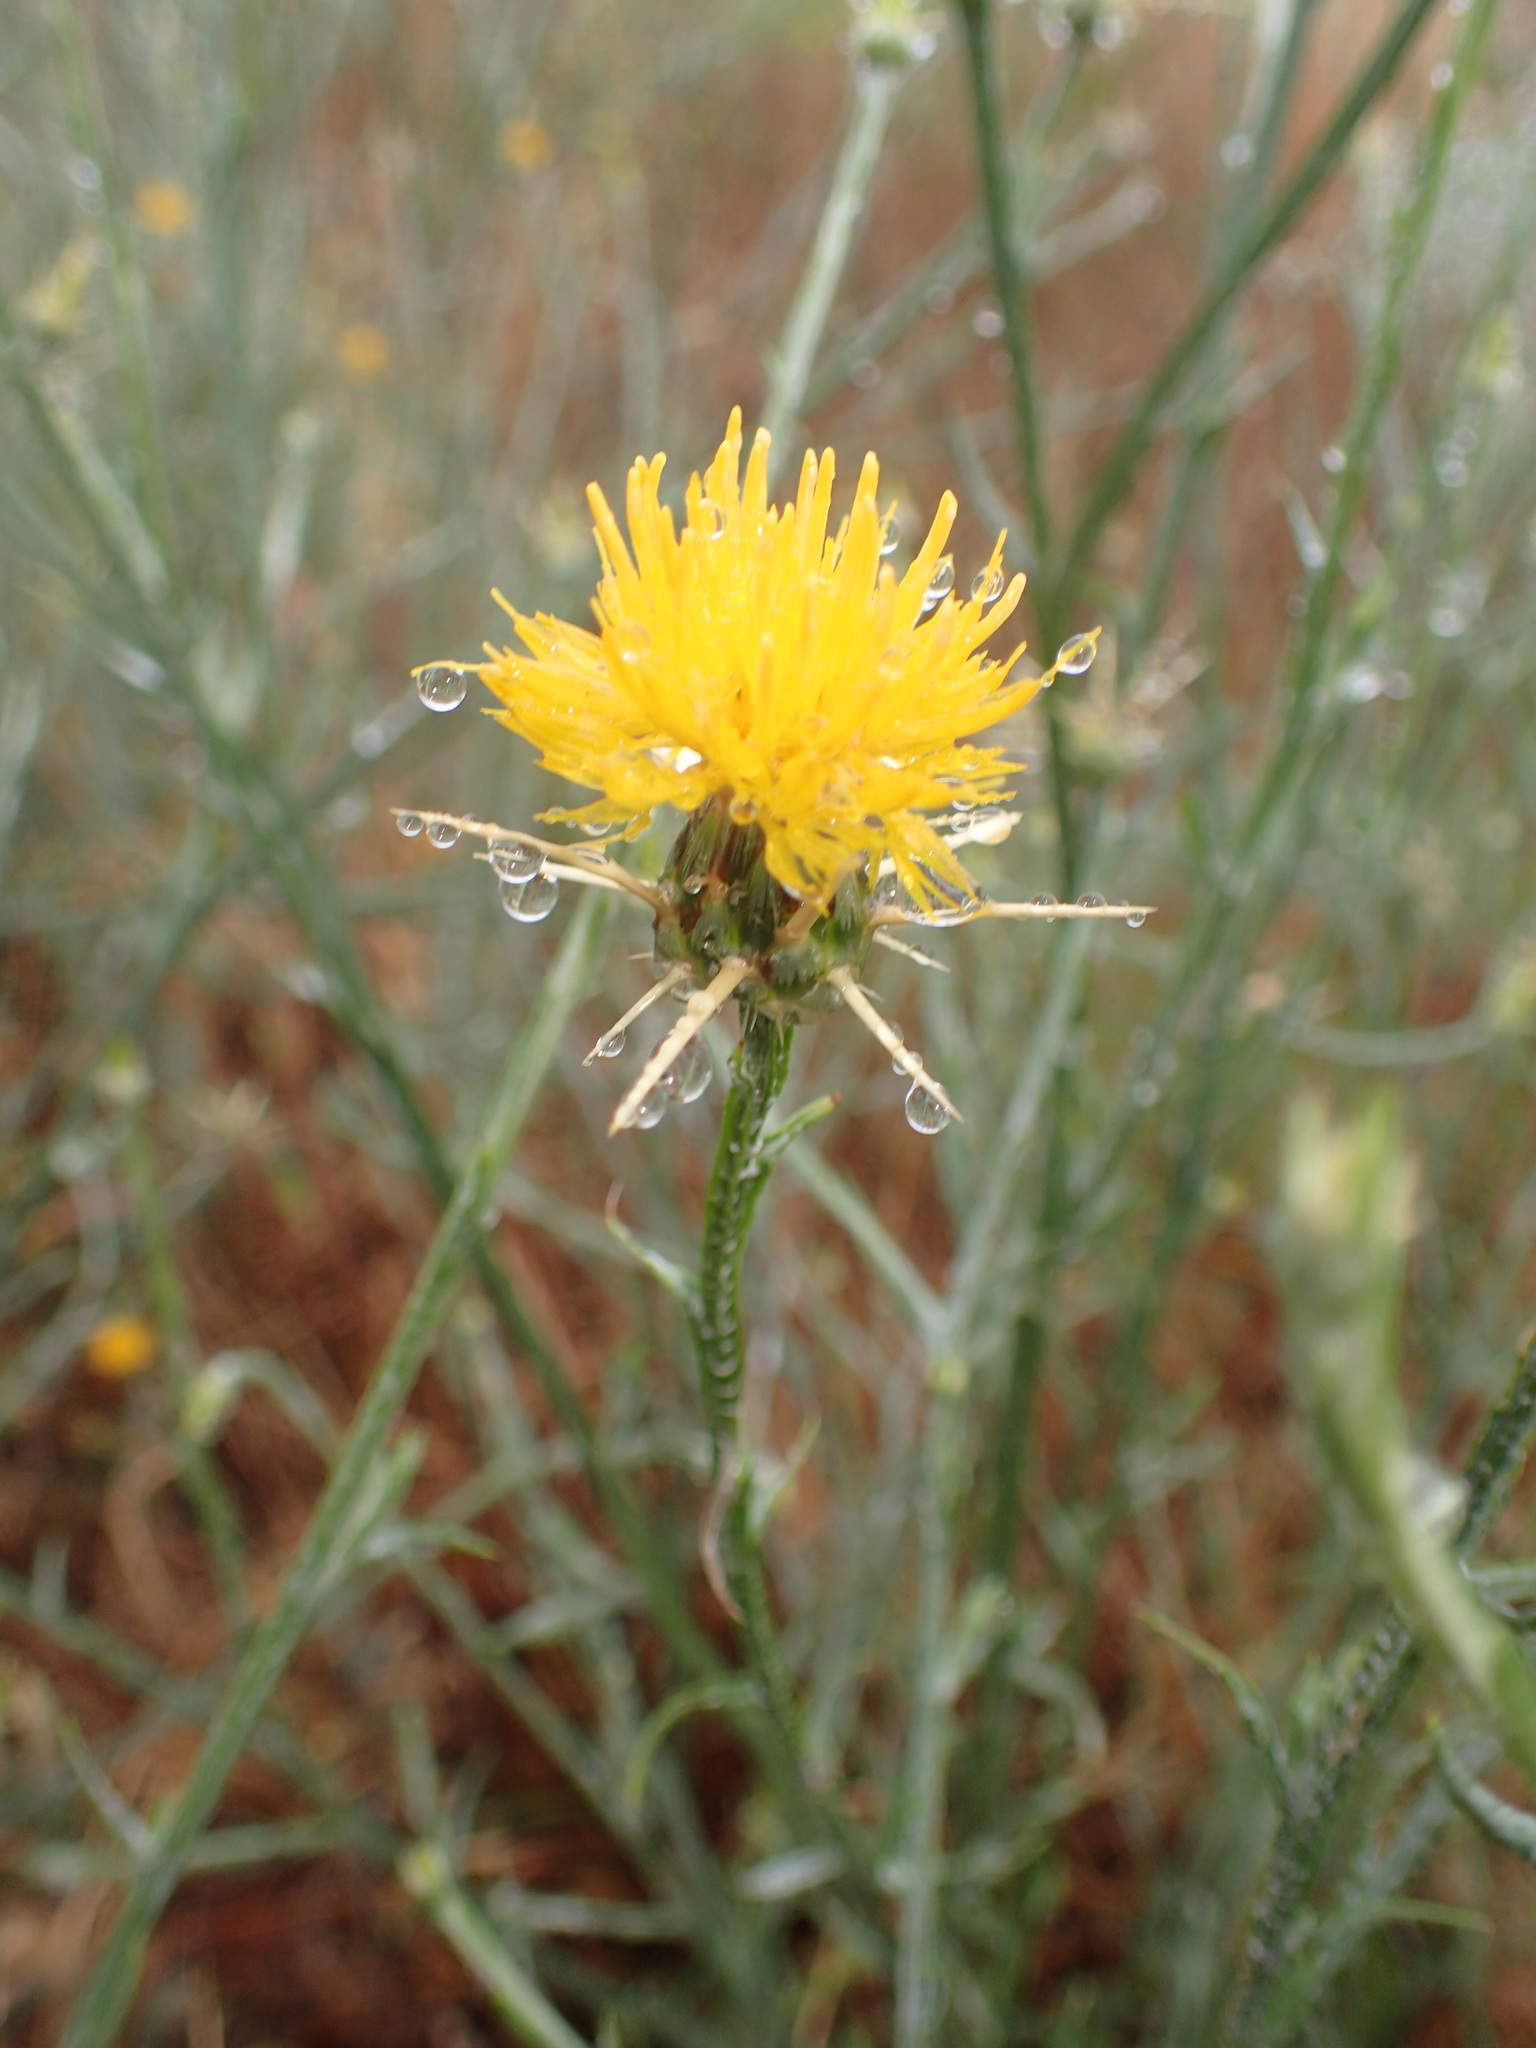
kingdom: Plantae
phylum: Tracheophyta
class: Magnoliopsida
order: Asterales
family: Asteraceae
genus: Centaurea
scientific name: Centaurea solstitialis
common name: Yellow star-thistle
